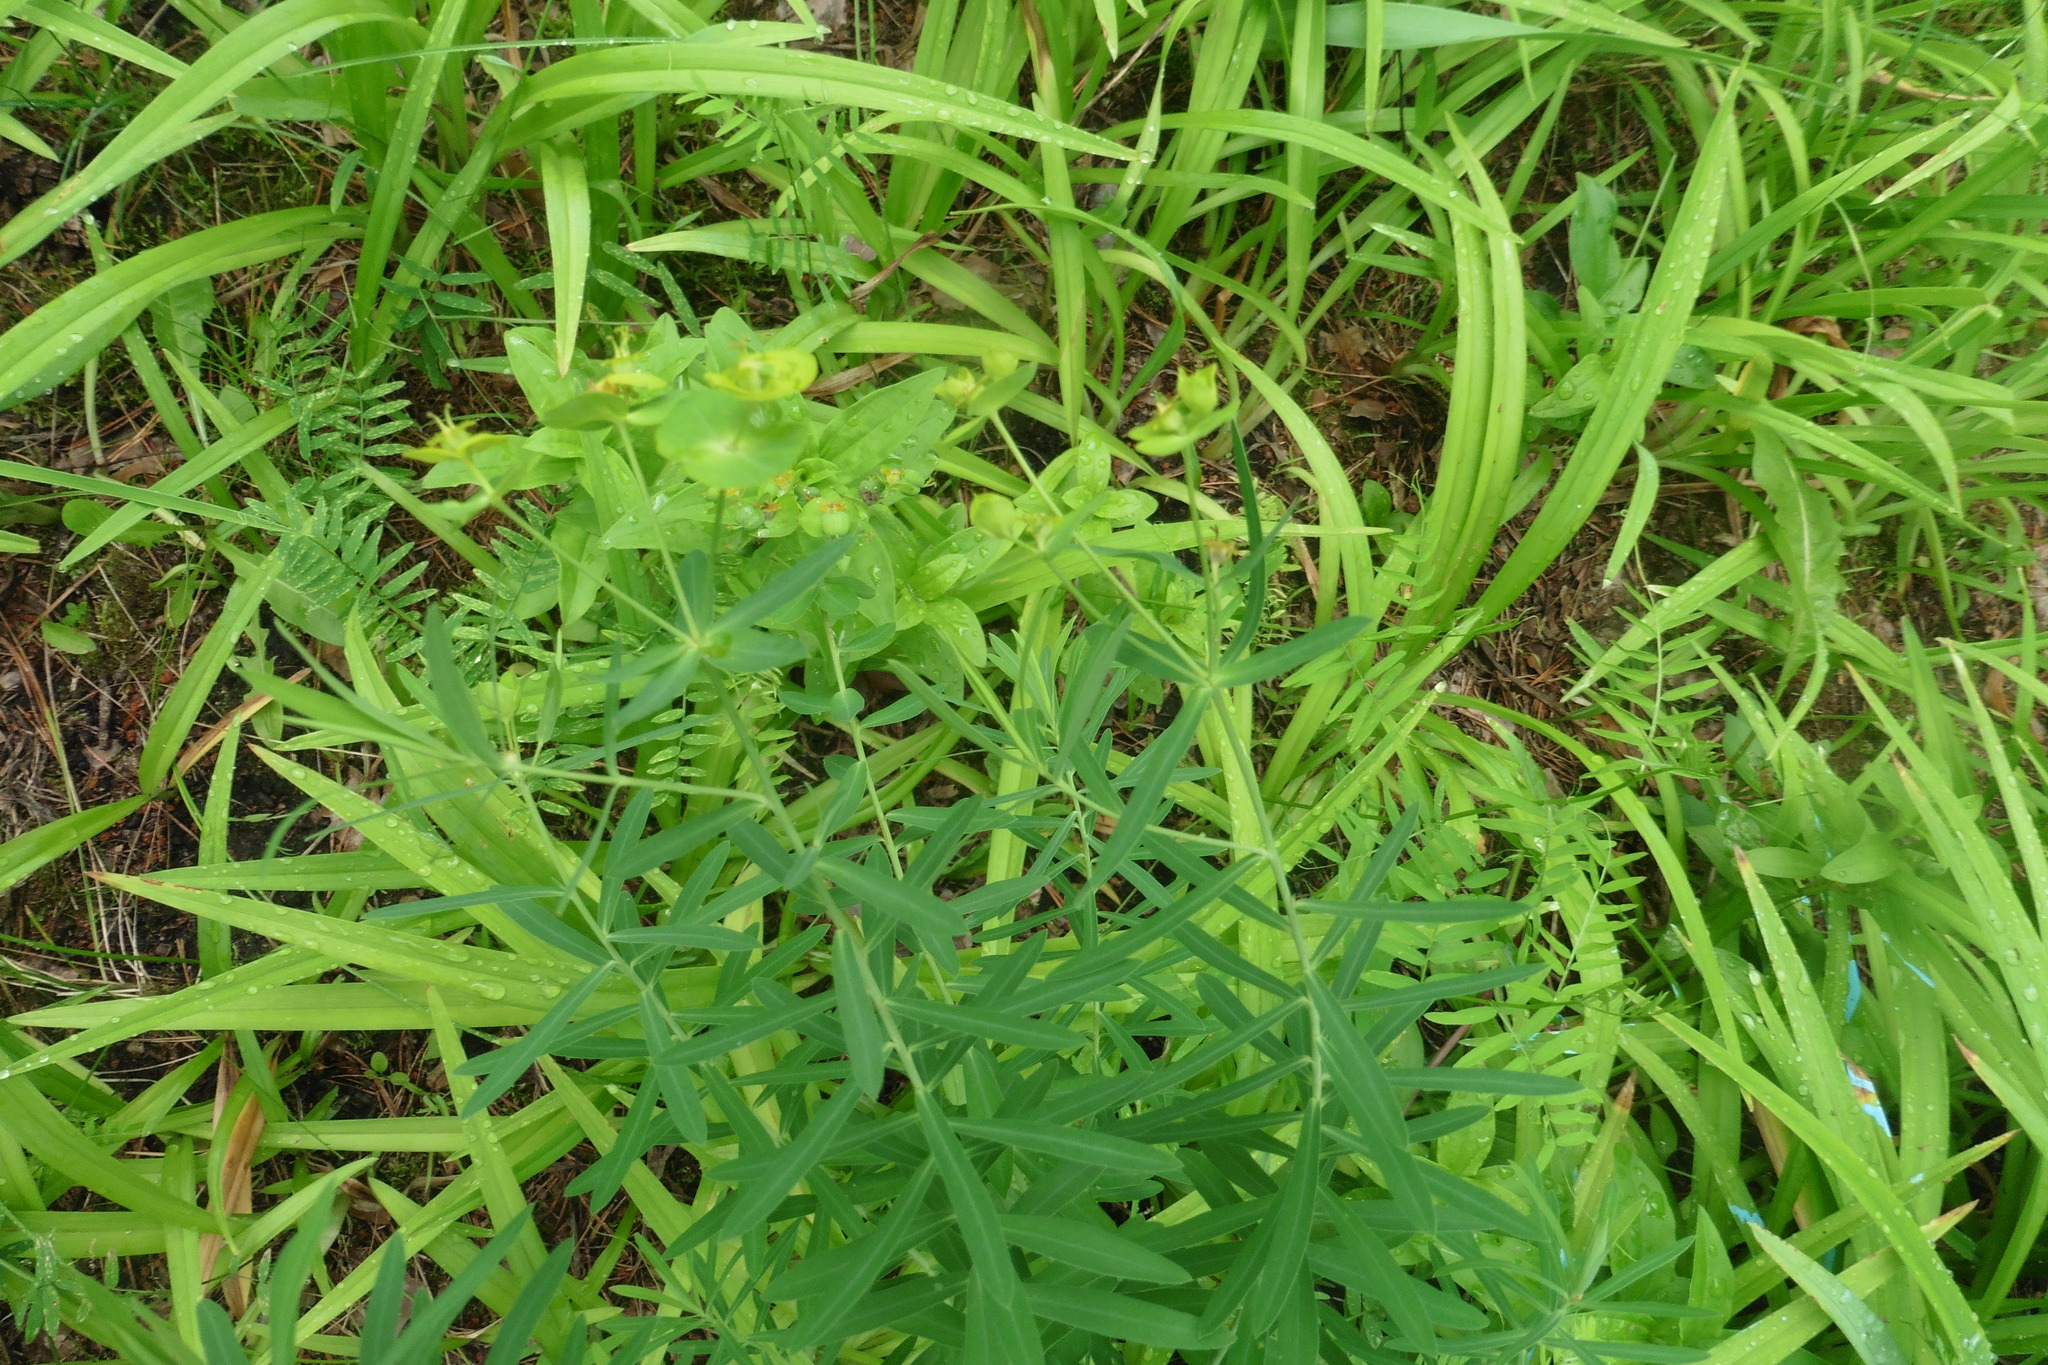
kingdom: Plantae
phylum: Tracheophyta
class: Magnoliopsida
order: Malpighiales
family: Euphorbiaceae
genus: Euphorbia
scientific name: Euphorbia virgata
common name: Leafy spurge
